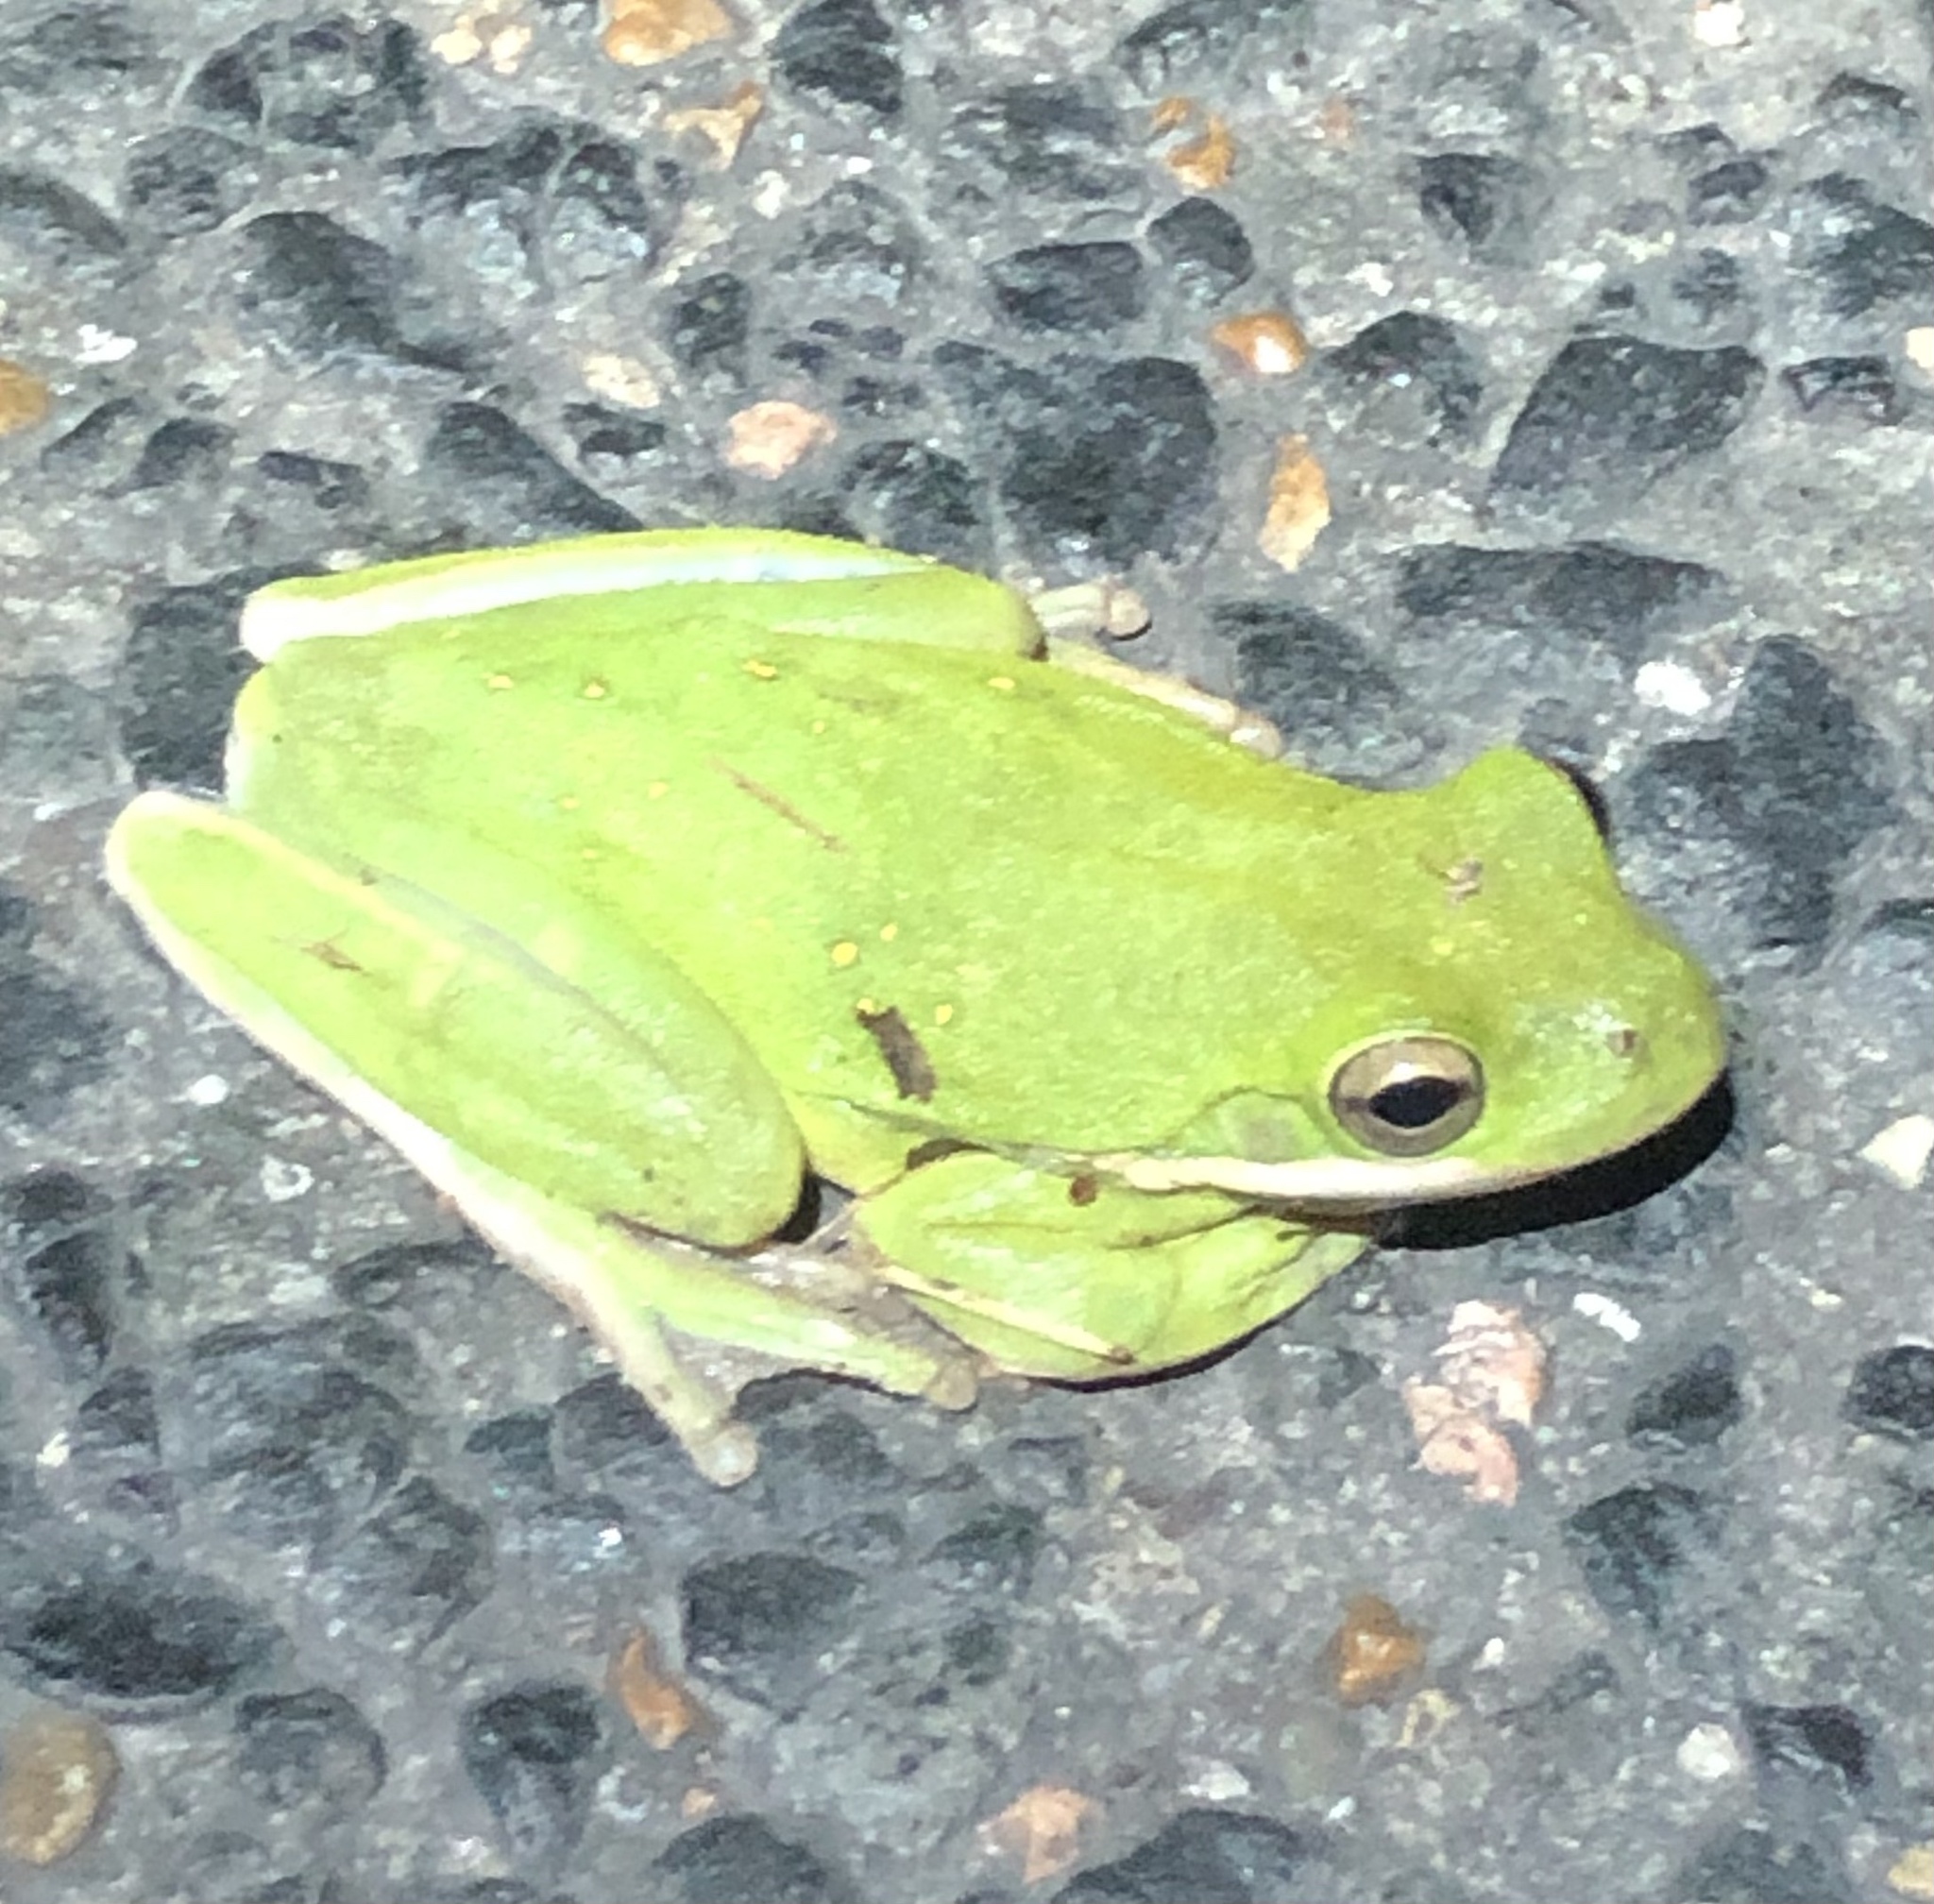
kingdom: Animalia
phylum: Chordata
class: Amphibia
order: Anura
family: Hylidae
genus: Dryophytes
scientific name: Dryophytes cinereus
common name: Green treefrog
